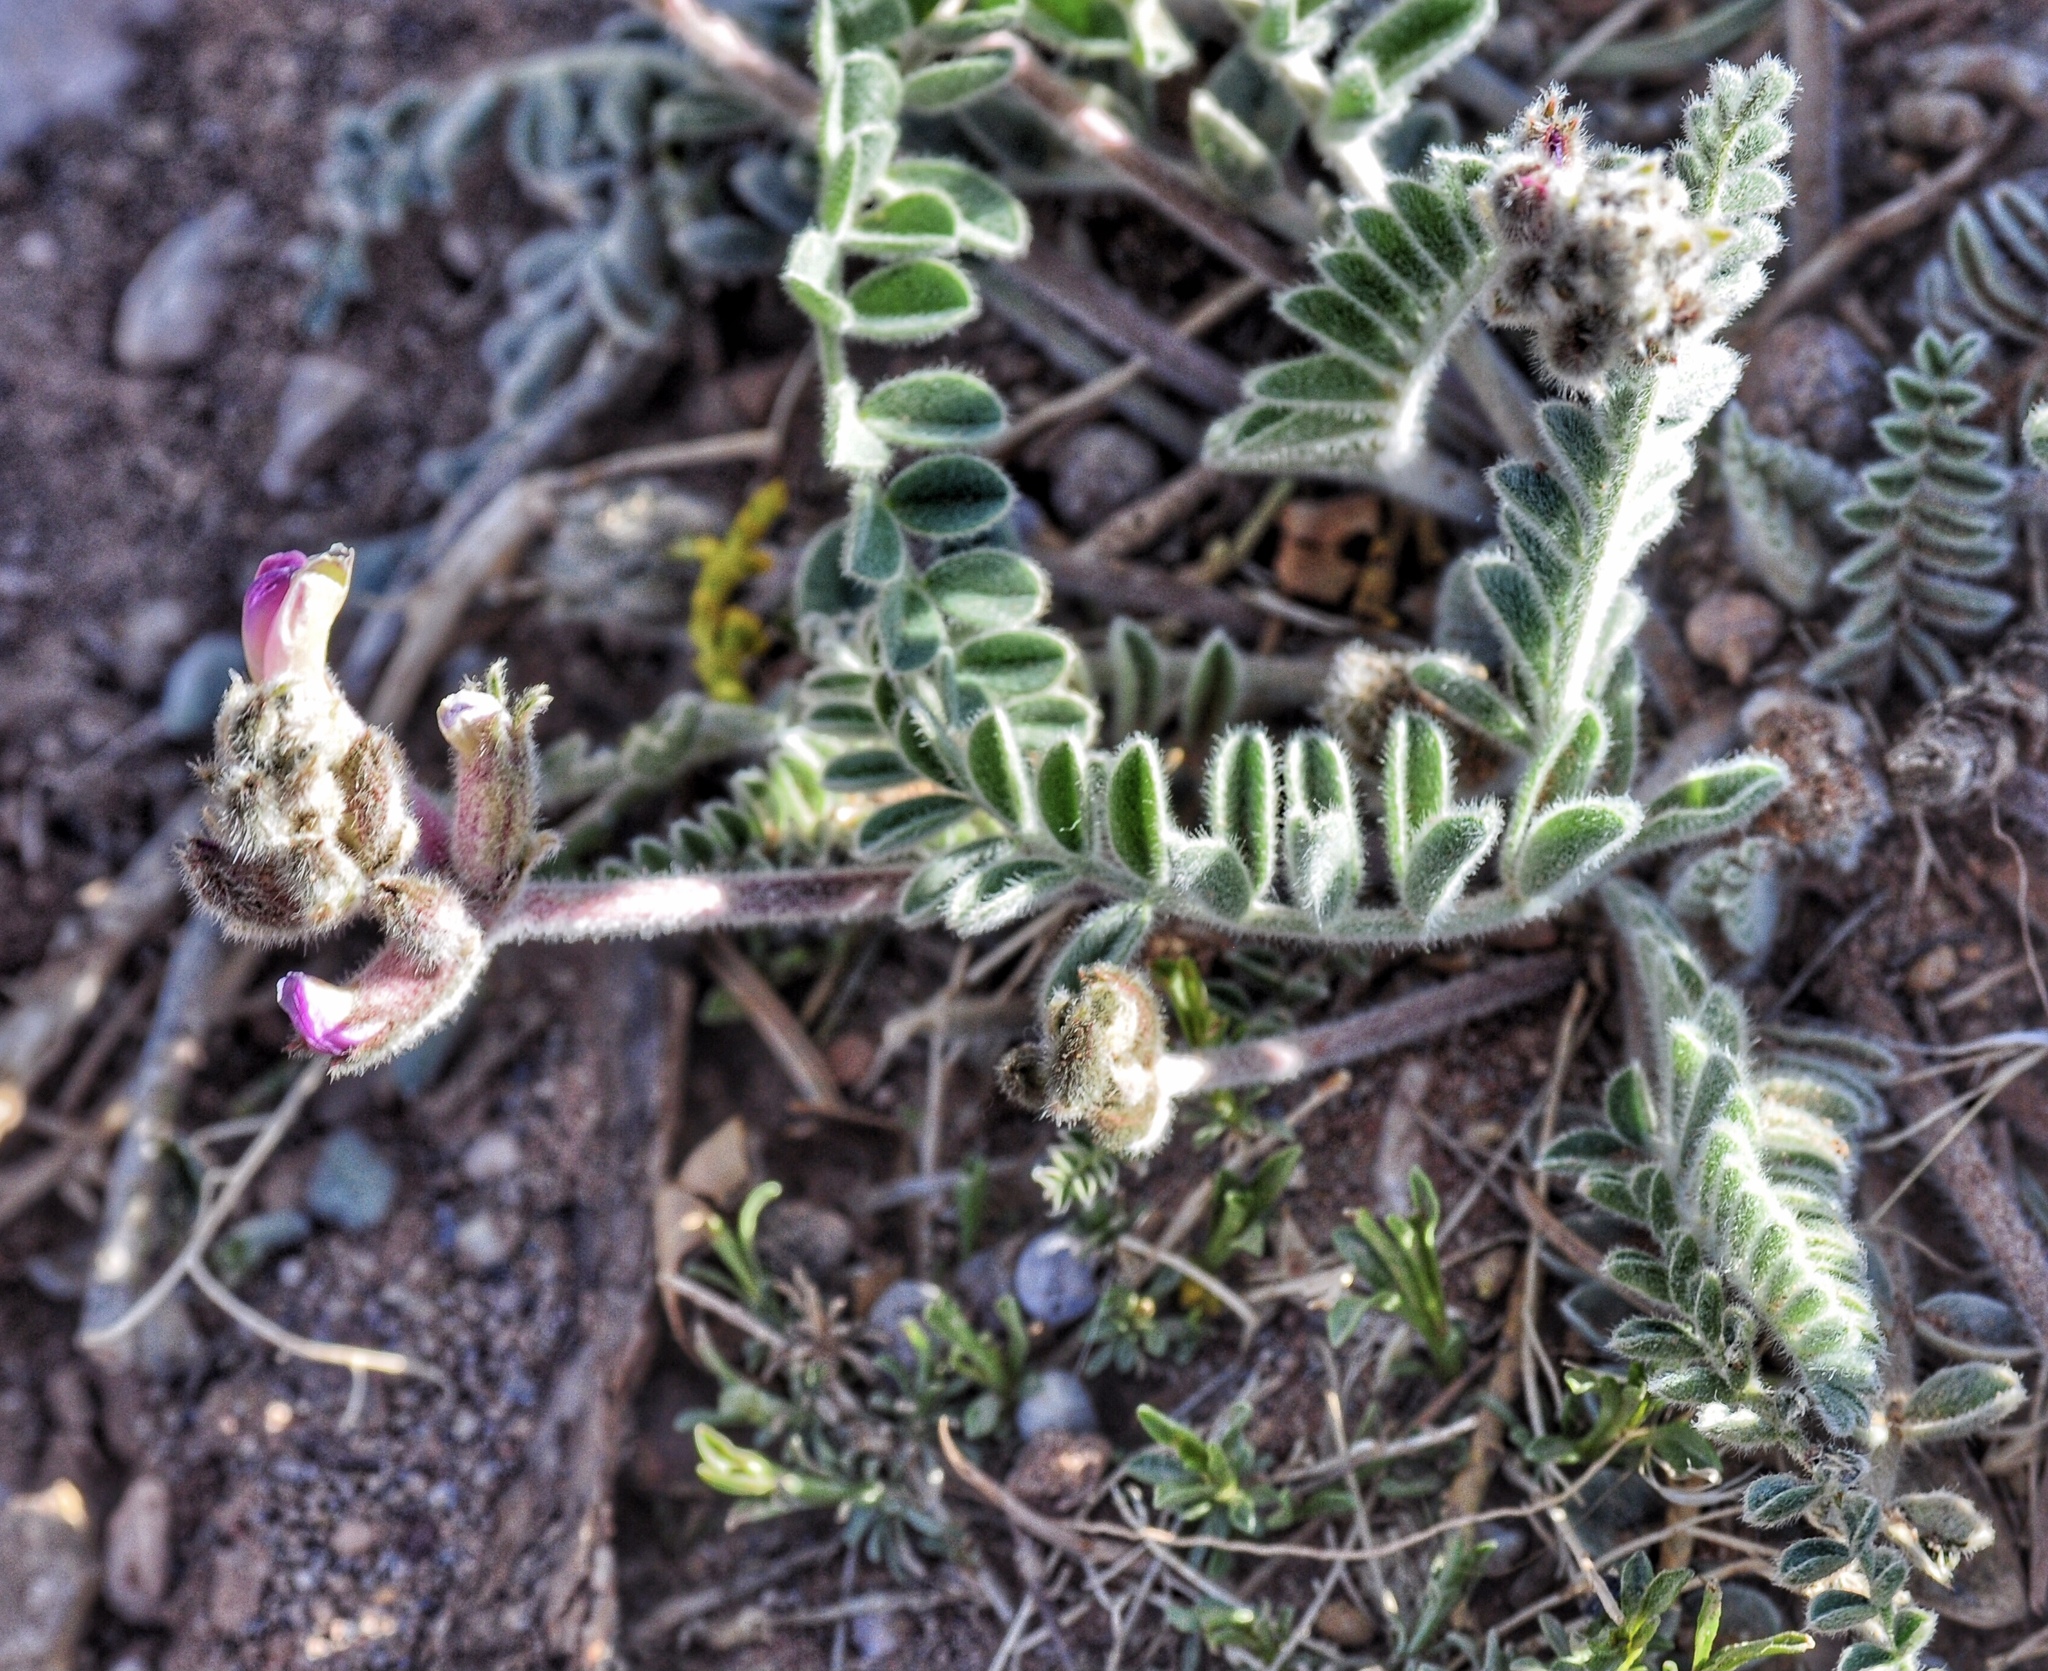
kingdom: Plantae
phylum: Tracheophyta
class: Magnoliopsida
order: Fabales
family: Fabaceae
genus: Astragalus
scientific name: Astragalus mollissimus
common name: Woolly locoweed
